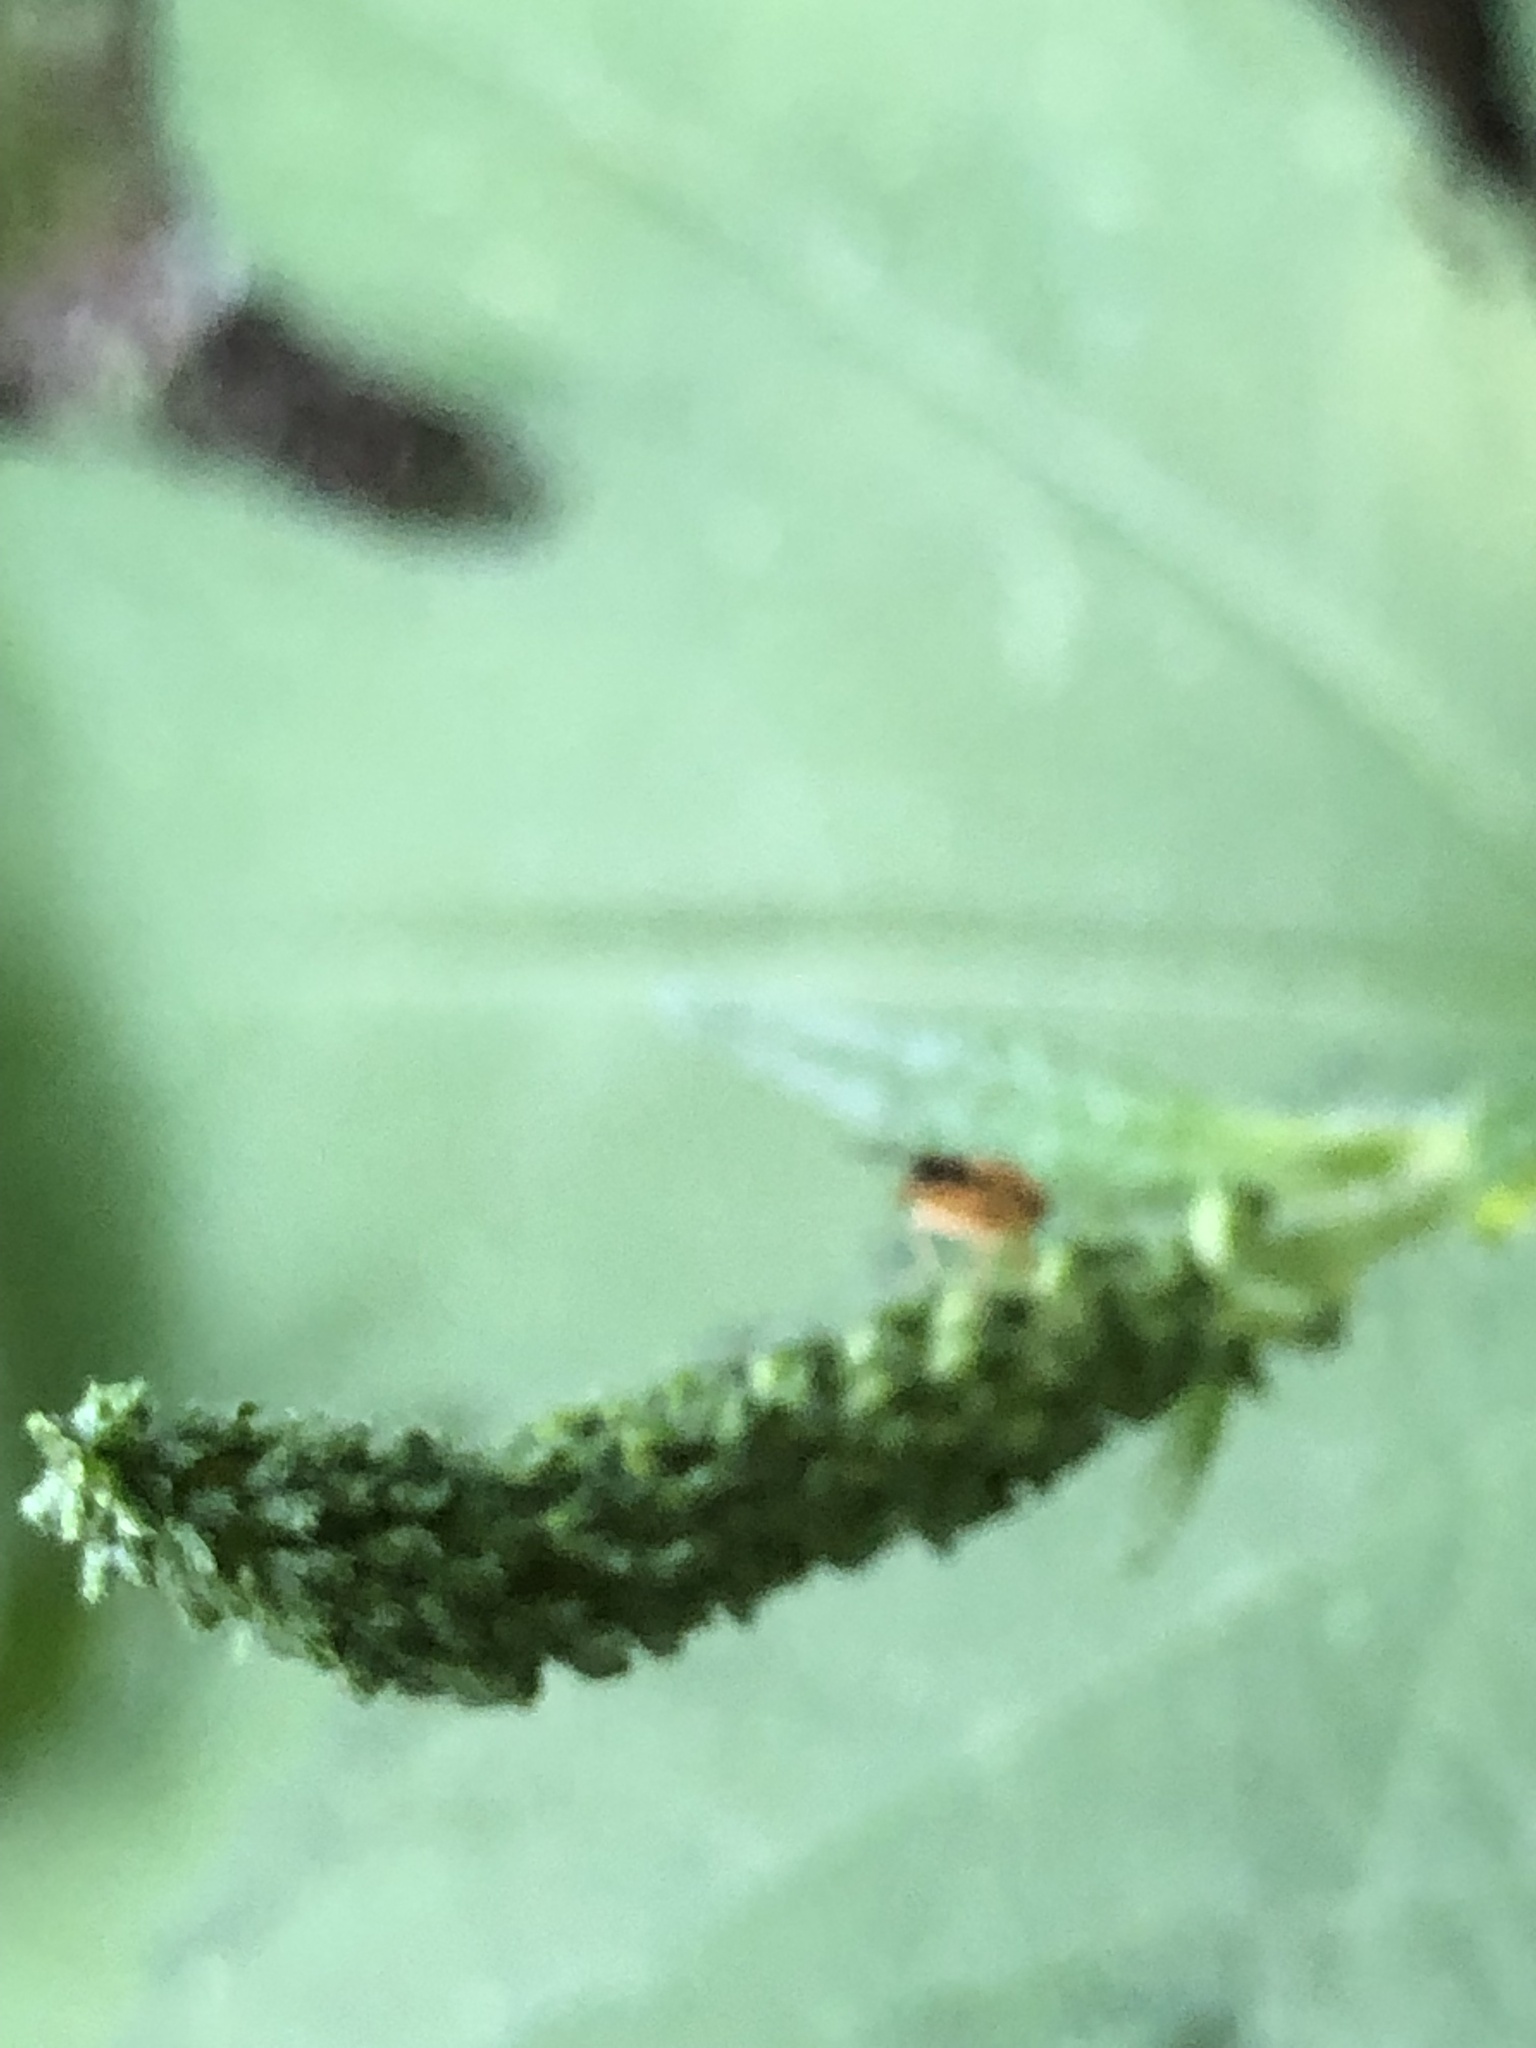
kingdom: Plantae
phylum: Tracheophyta
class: Magnoliopsida
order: Asterales
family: Asteraceae
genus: Ambrosia
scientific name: Ambrosia trifida
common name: Giant ragweed
